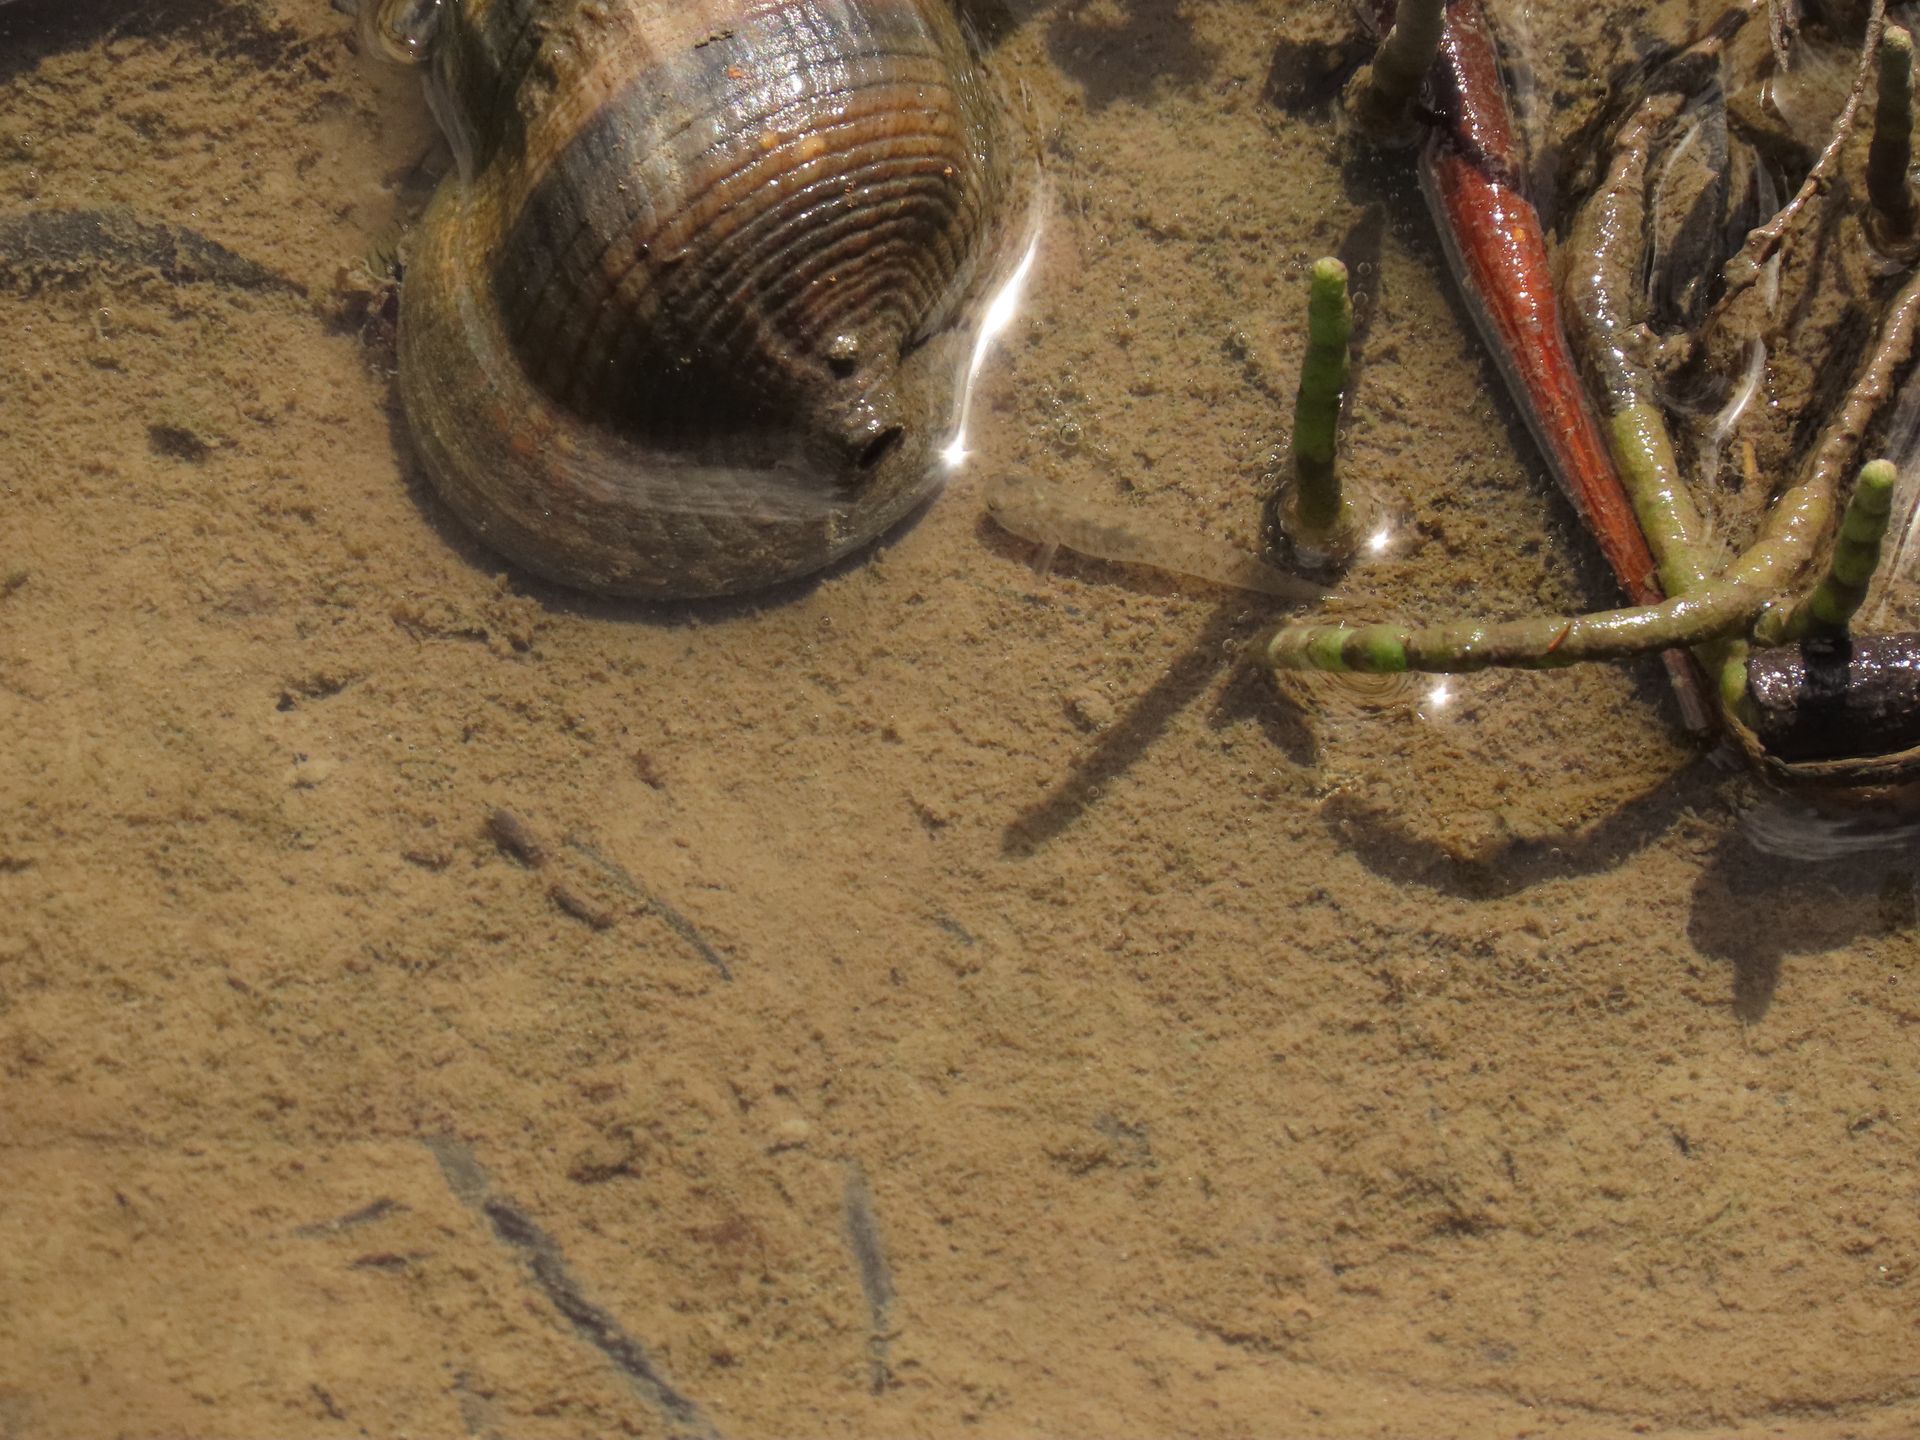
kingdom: Animalia
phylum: Chordata
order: Perciformes
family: Gobiidae
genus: Wuhanlinigobius
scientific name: Wuhanlinigobius polylepis
